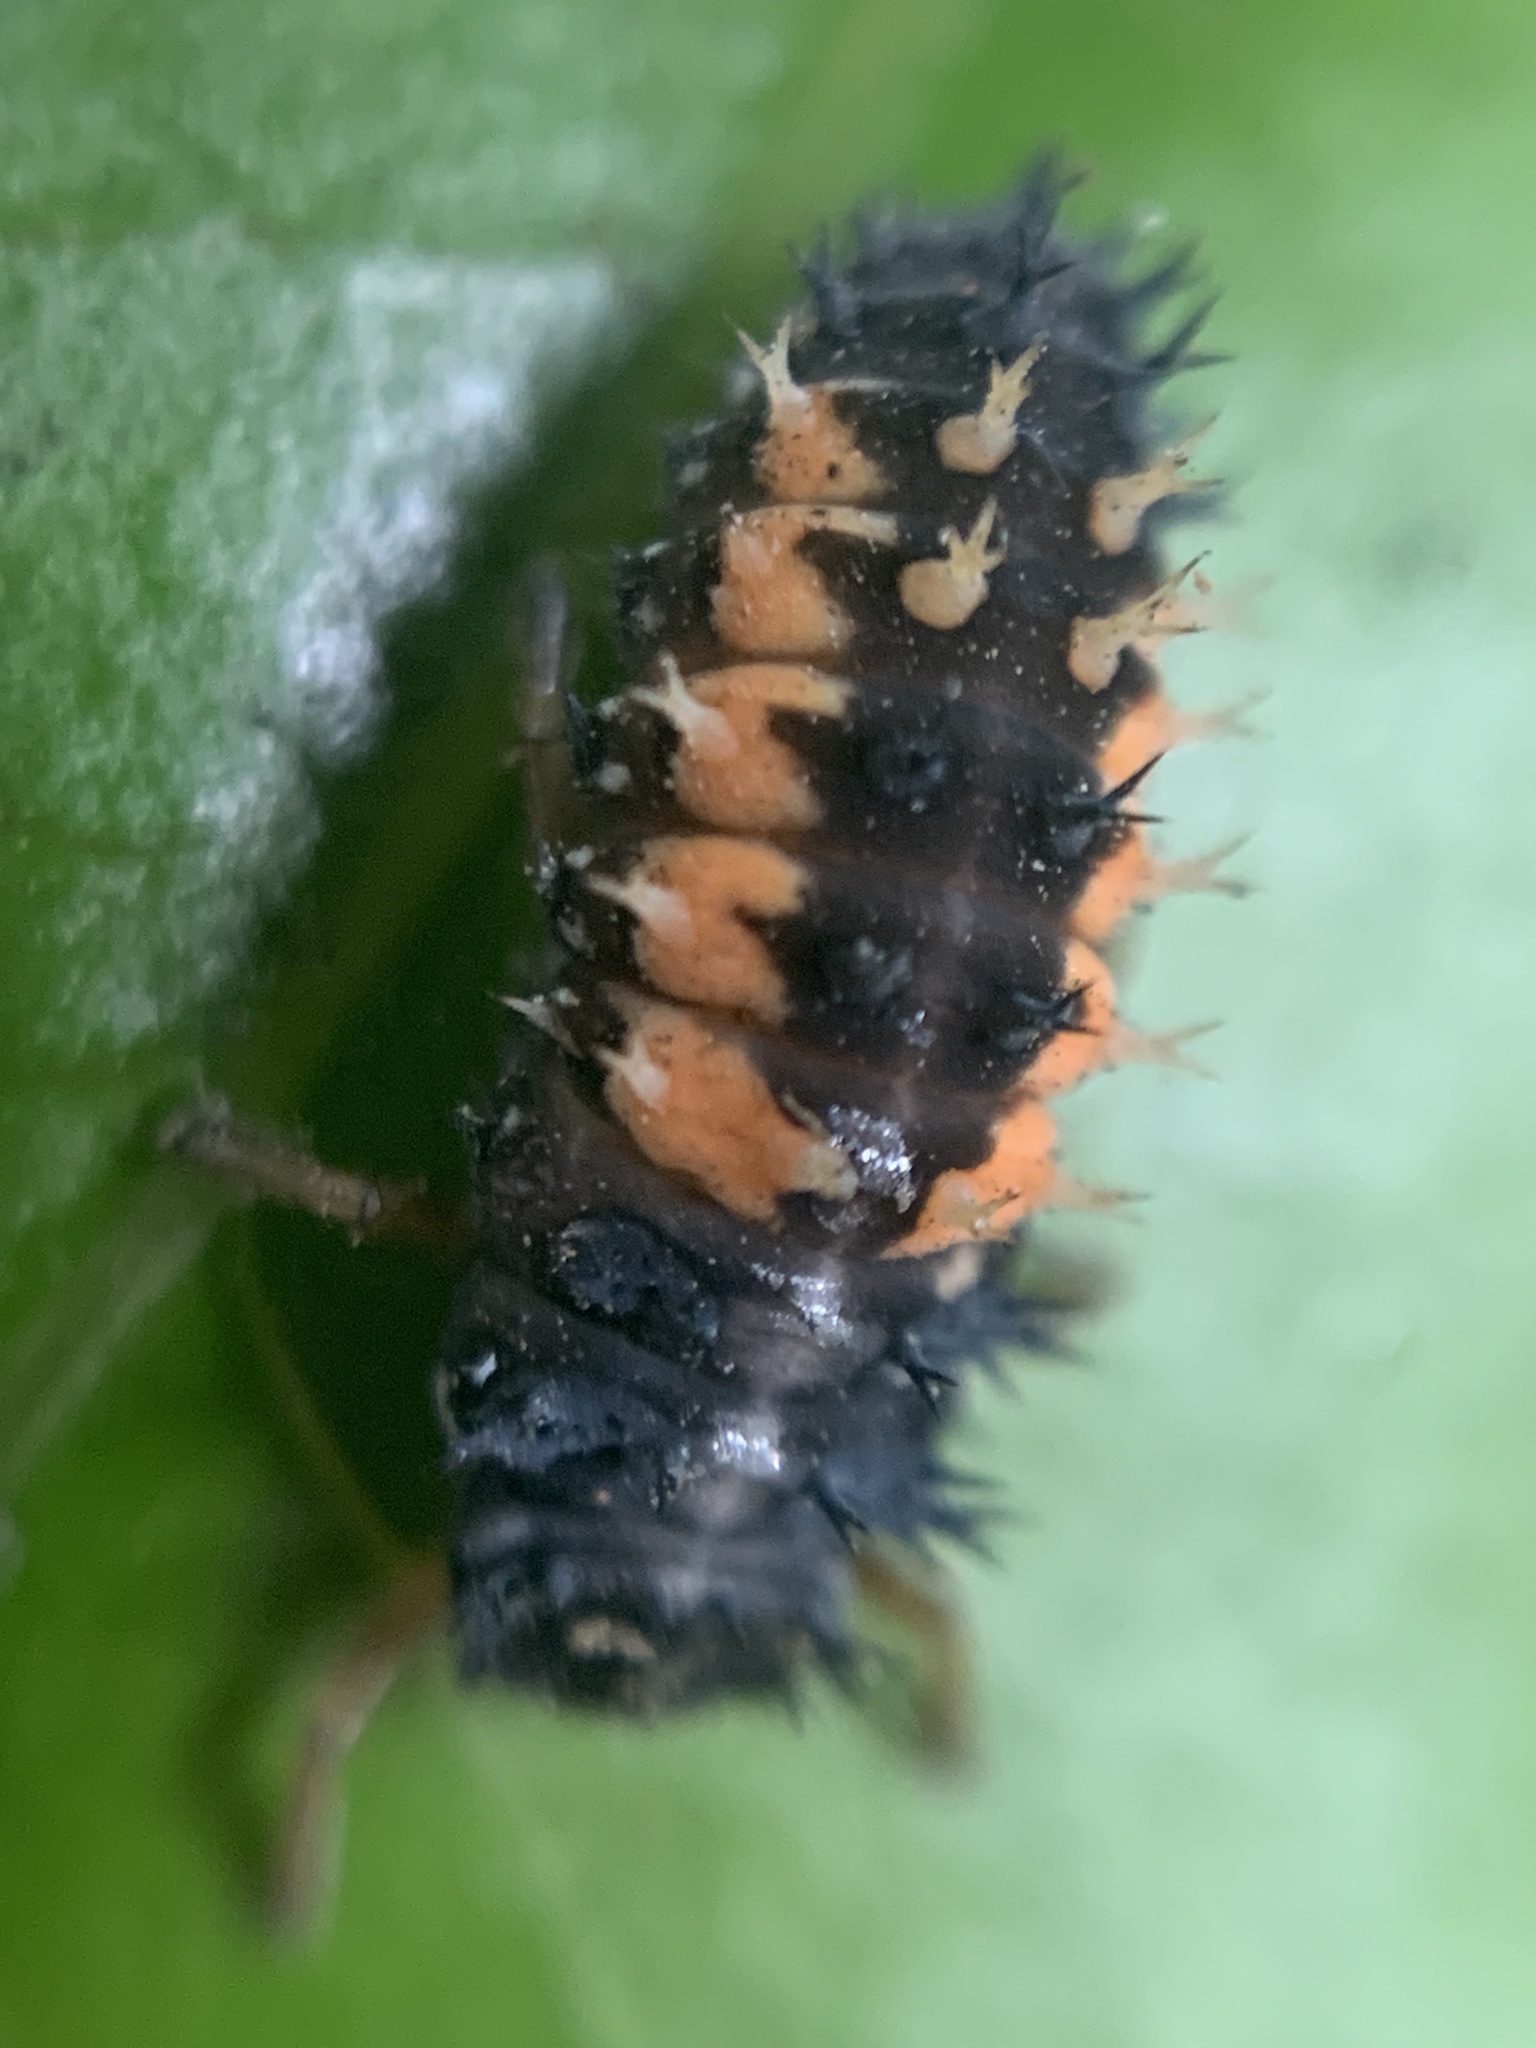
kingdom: Animalia
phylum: Arthropoda
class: Insecta
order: Coleoptera
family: Coccinellidae
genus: Harmonia
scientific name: Harmonia axyridis
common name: Harlequin ladybird
